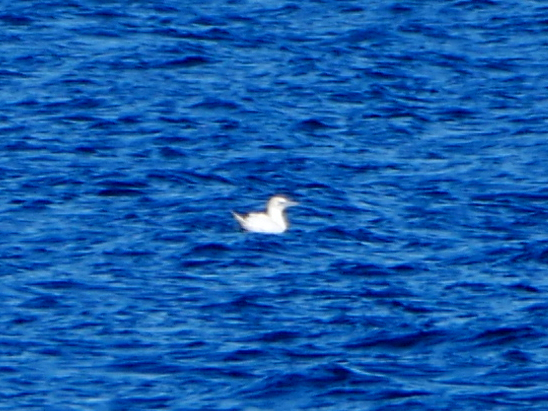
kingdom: Animalia
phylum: Chordata
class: Aves
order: Suliformes
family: Sulidae
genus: Morus
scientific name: Morus bassanus
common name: Northern gannet
